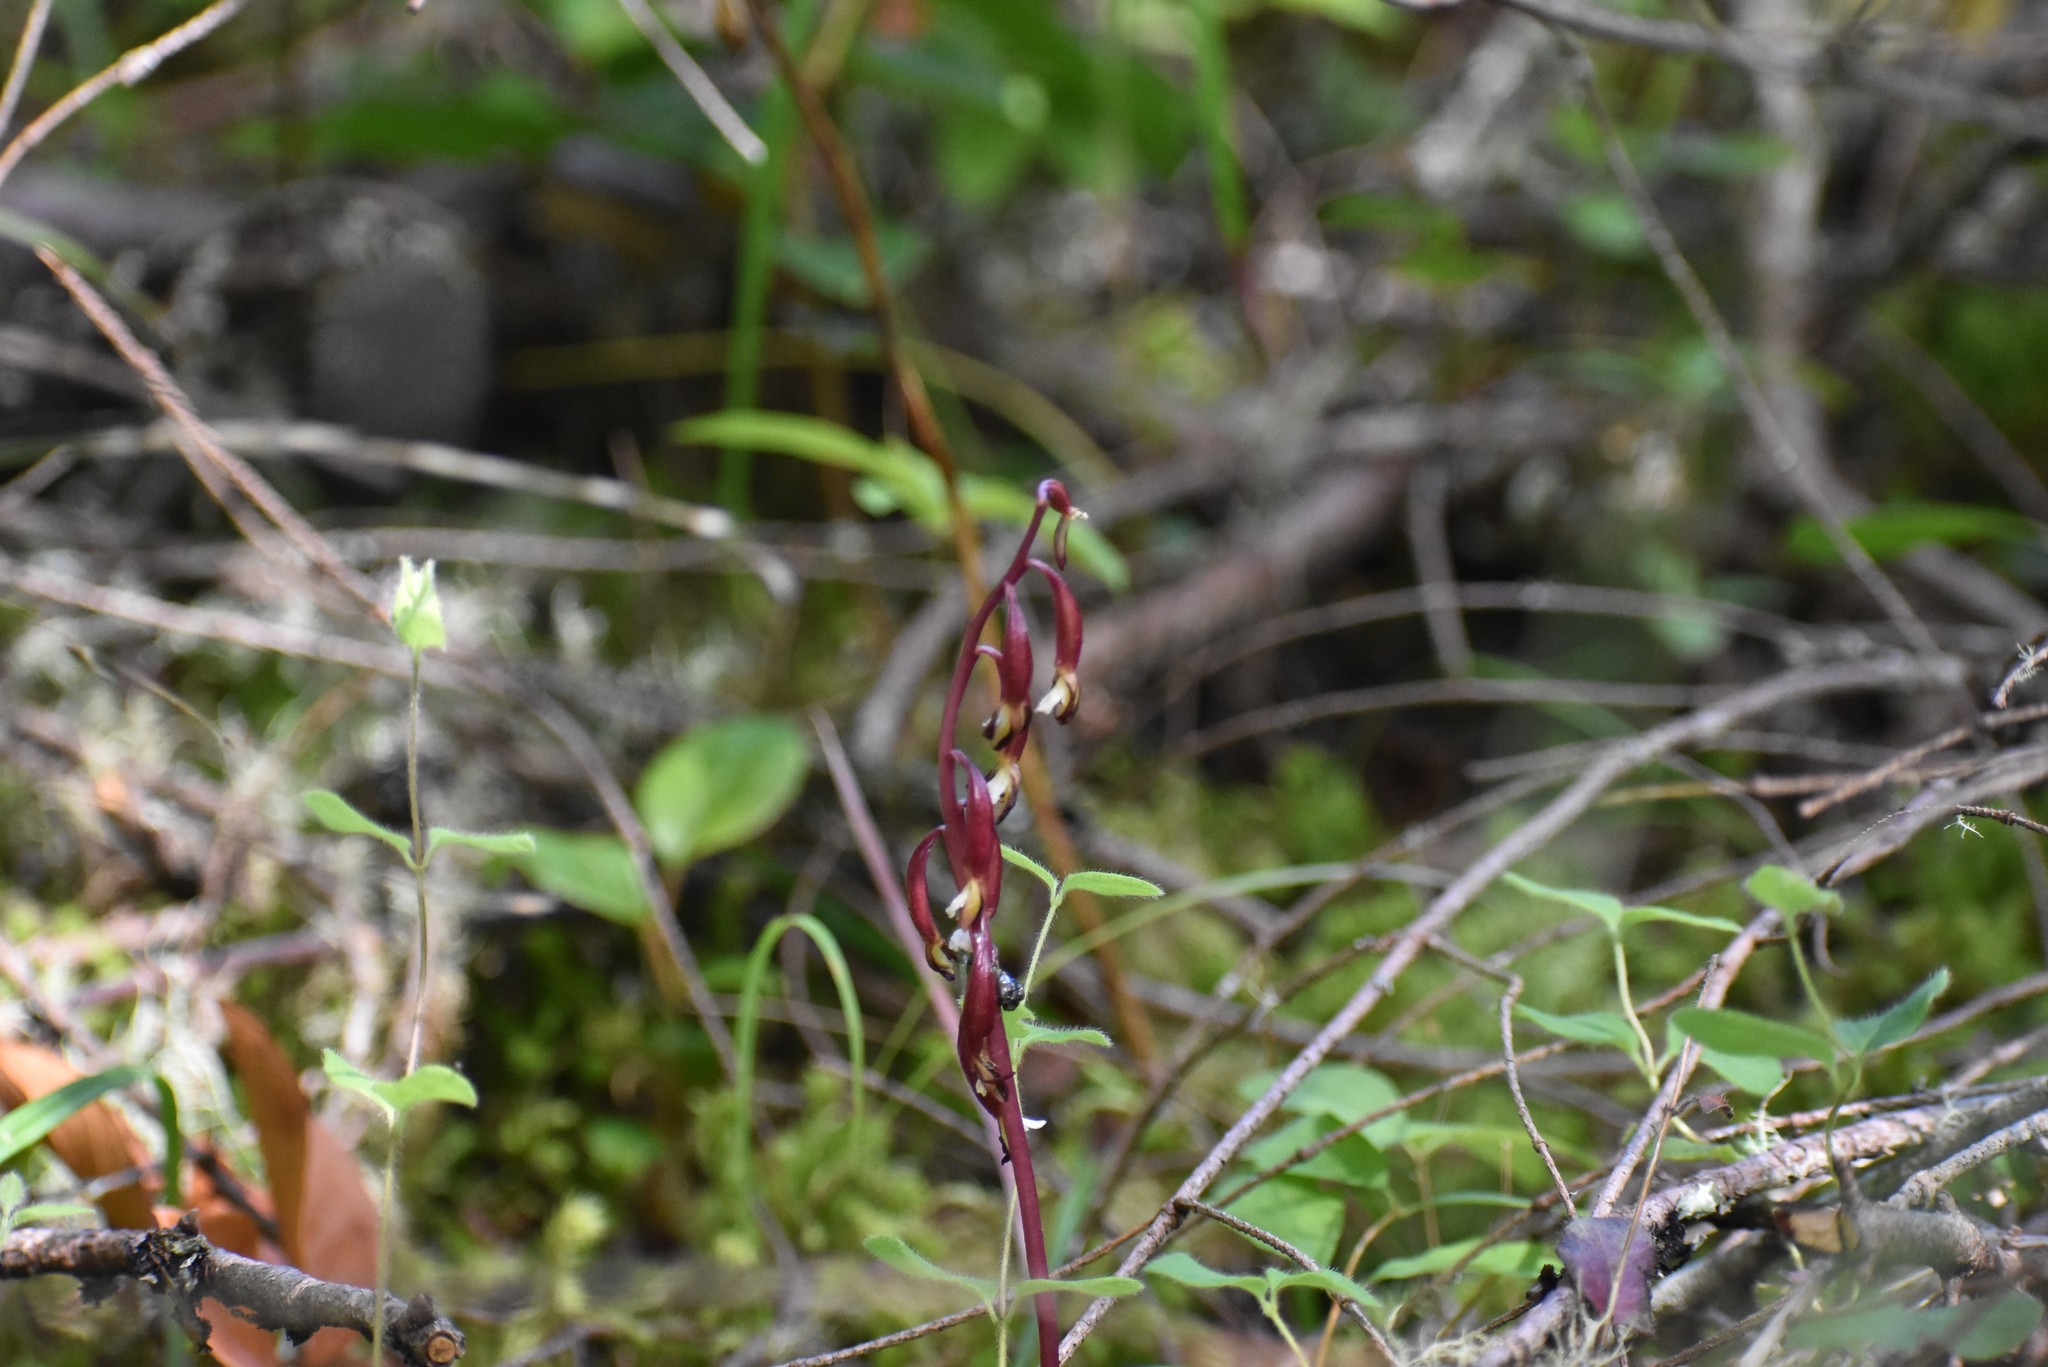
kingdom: Plantae
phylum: Tracheophyta
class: Liliopsida
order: Asparagales
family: Orchidaceae
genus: Corallorhiza
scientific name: Corallorhiza maculata
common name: Spotted coralroot
